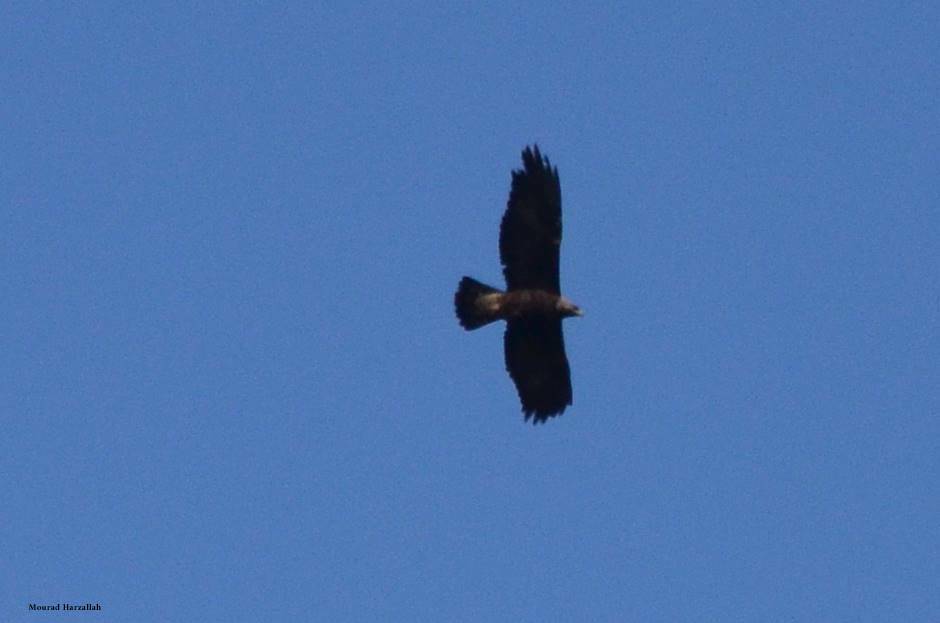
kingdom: Animalia
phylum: Chordata
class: Aves
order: Accipitriformes
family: Accipitridae
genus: Aquila
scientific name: Aquila chrysaetos
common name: Golden eagle
